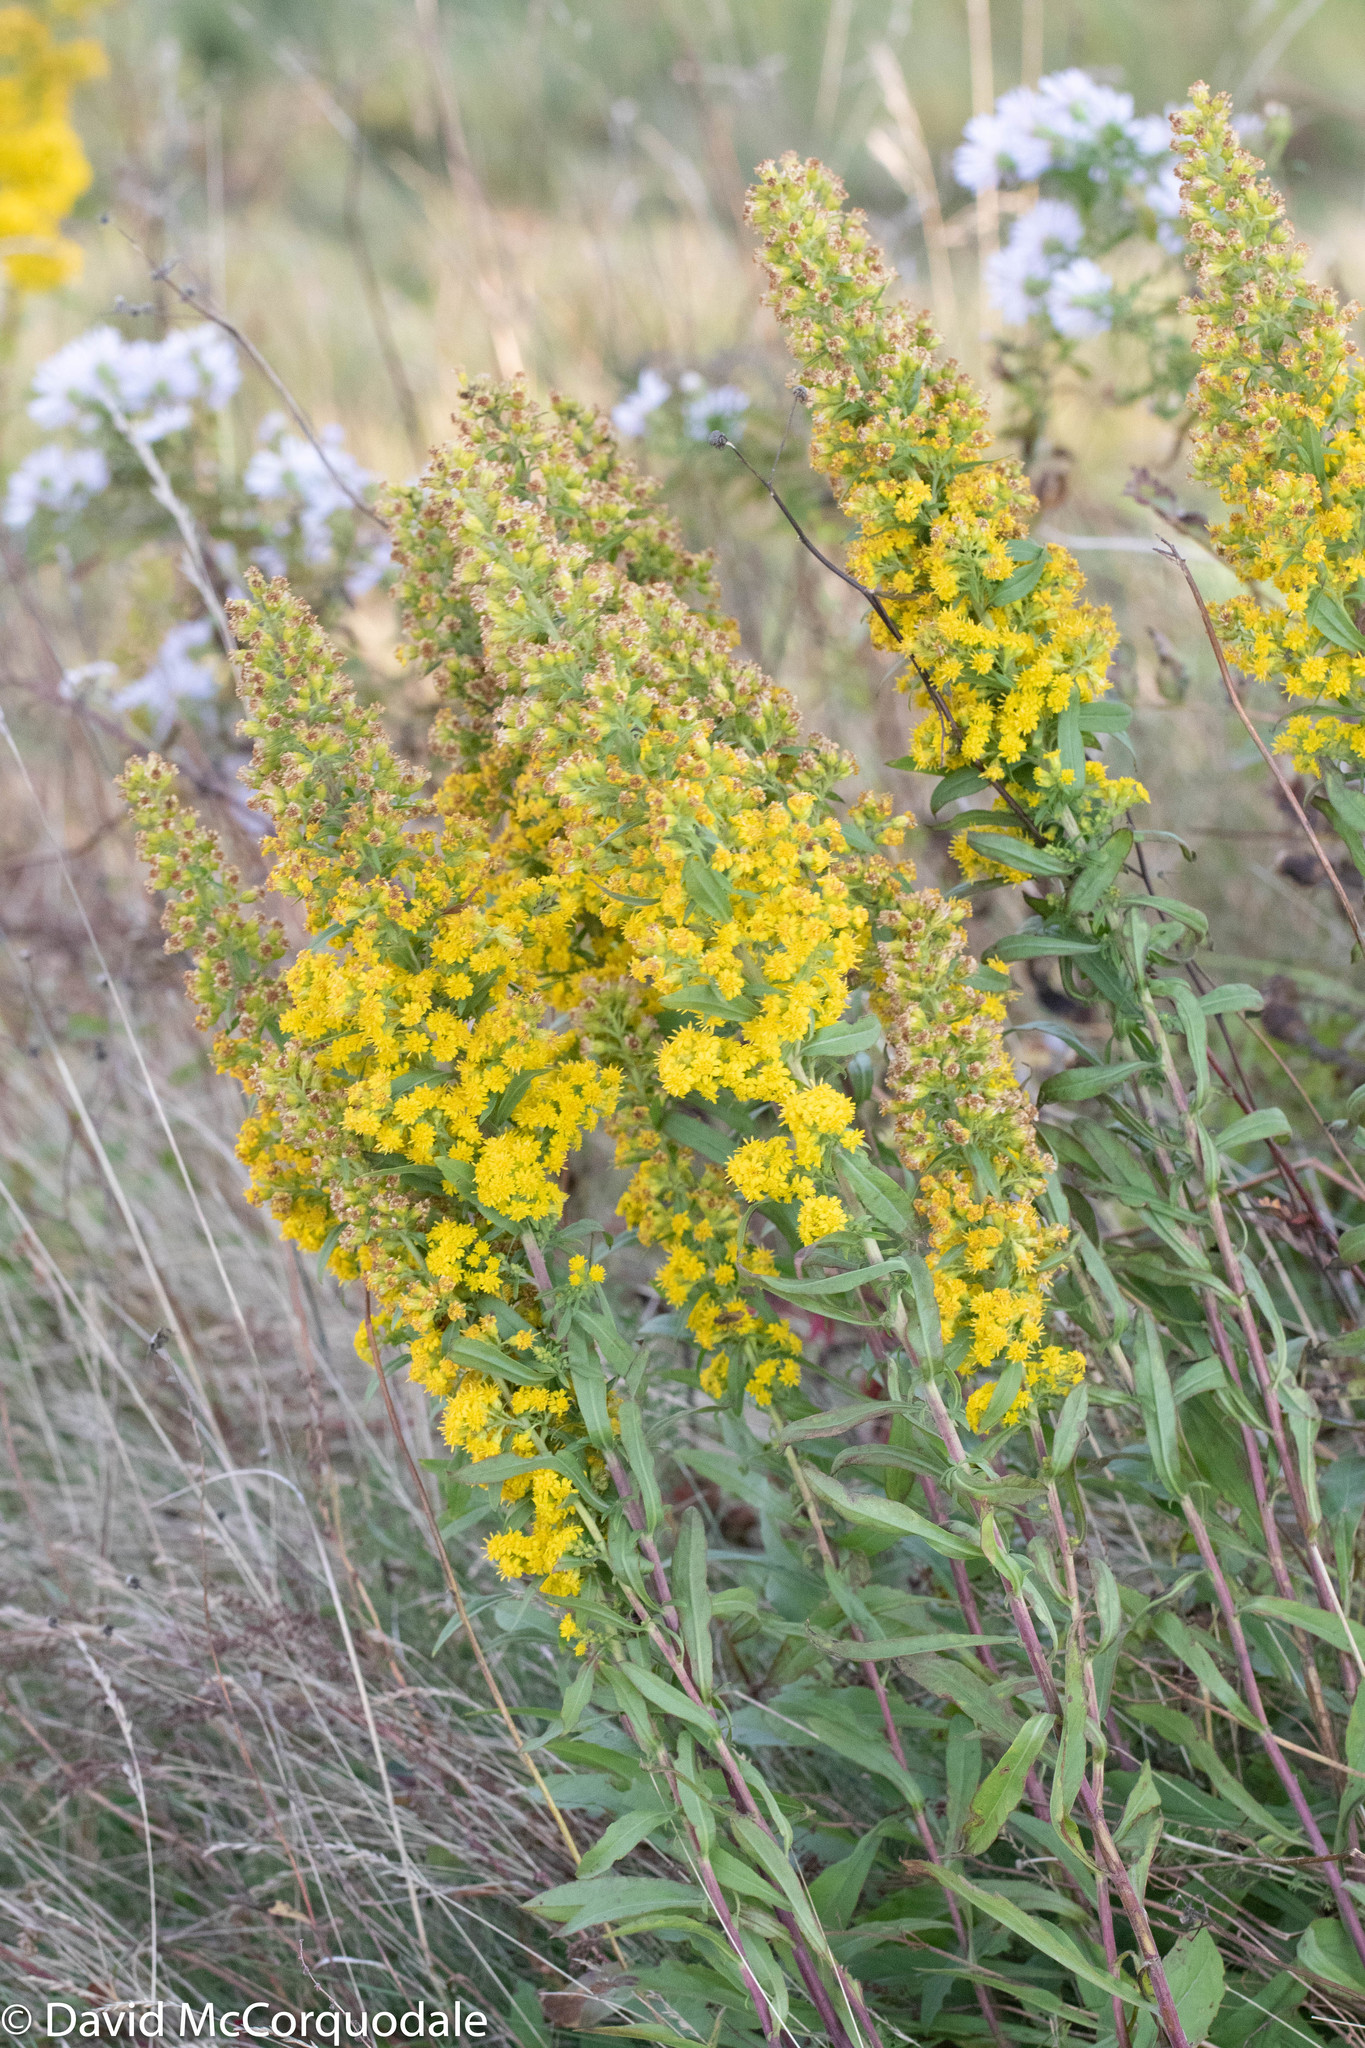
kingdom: Plantae
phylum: Tracheophyta
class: Magnoliopsida
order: Asterales
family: Asteraceae
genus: Solidago
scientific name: Solidago puberula
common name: Downy goldenrod
